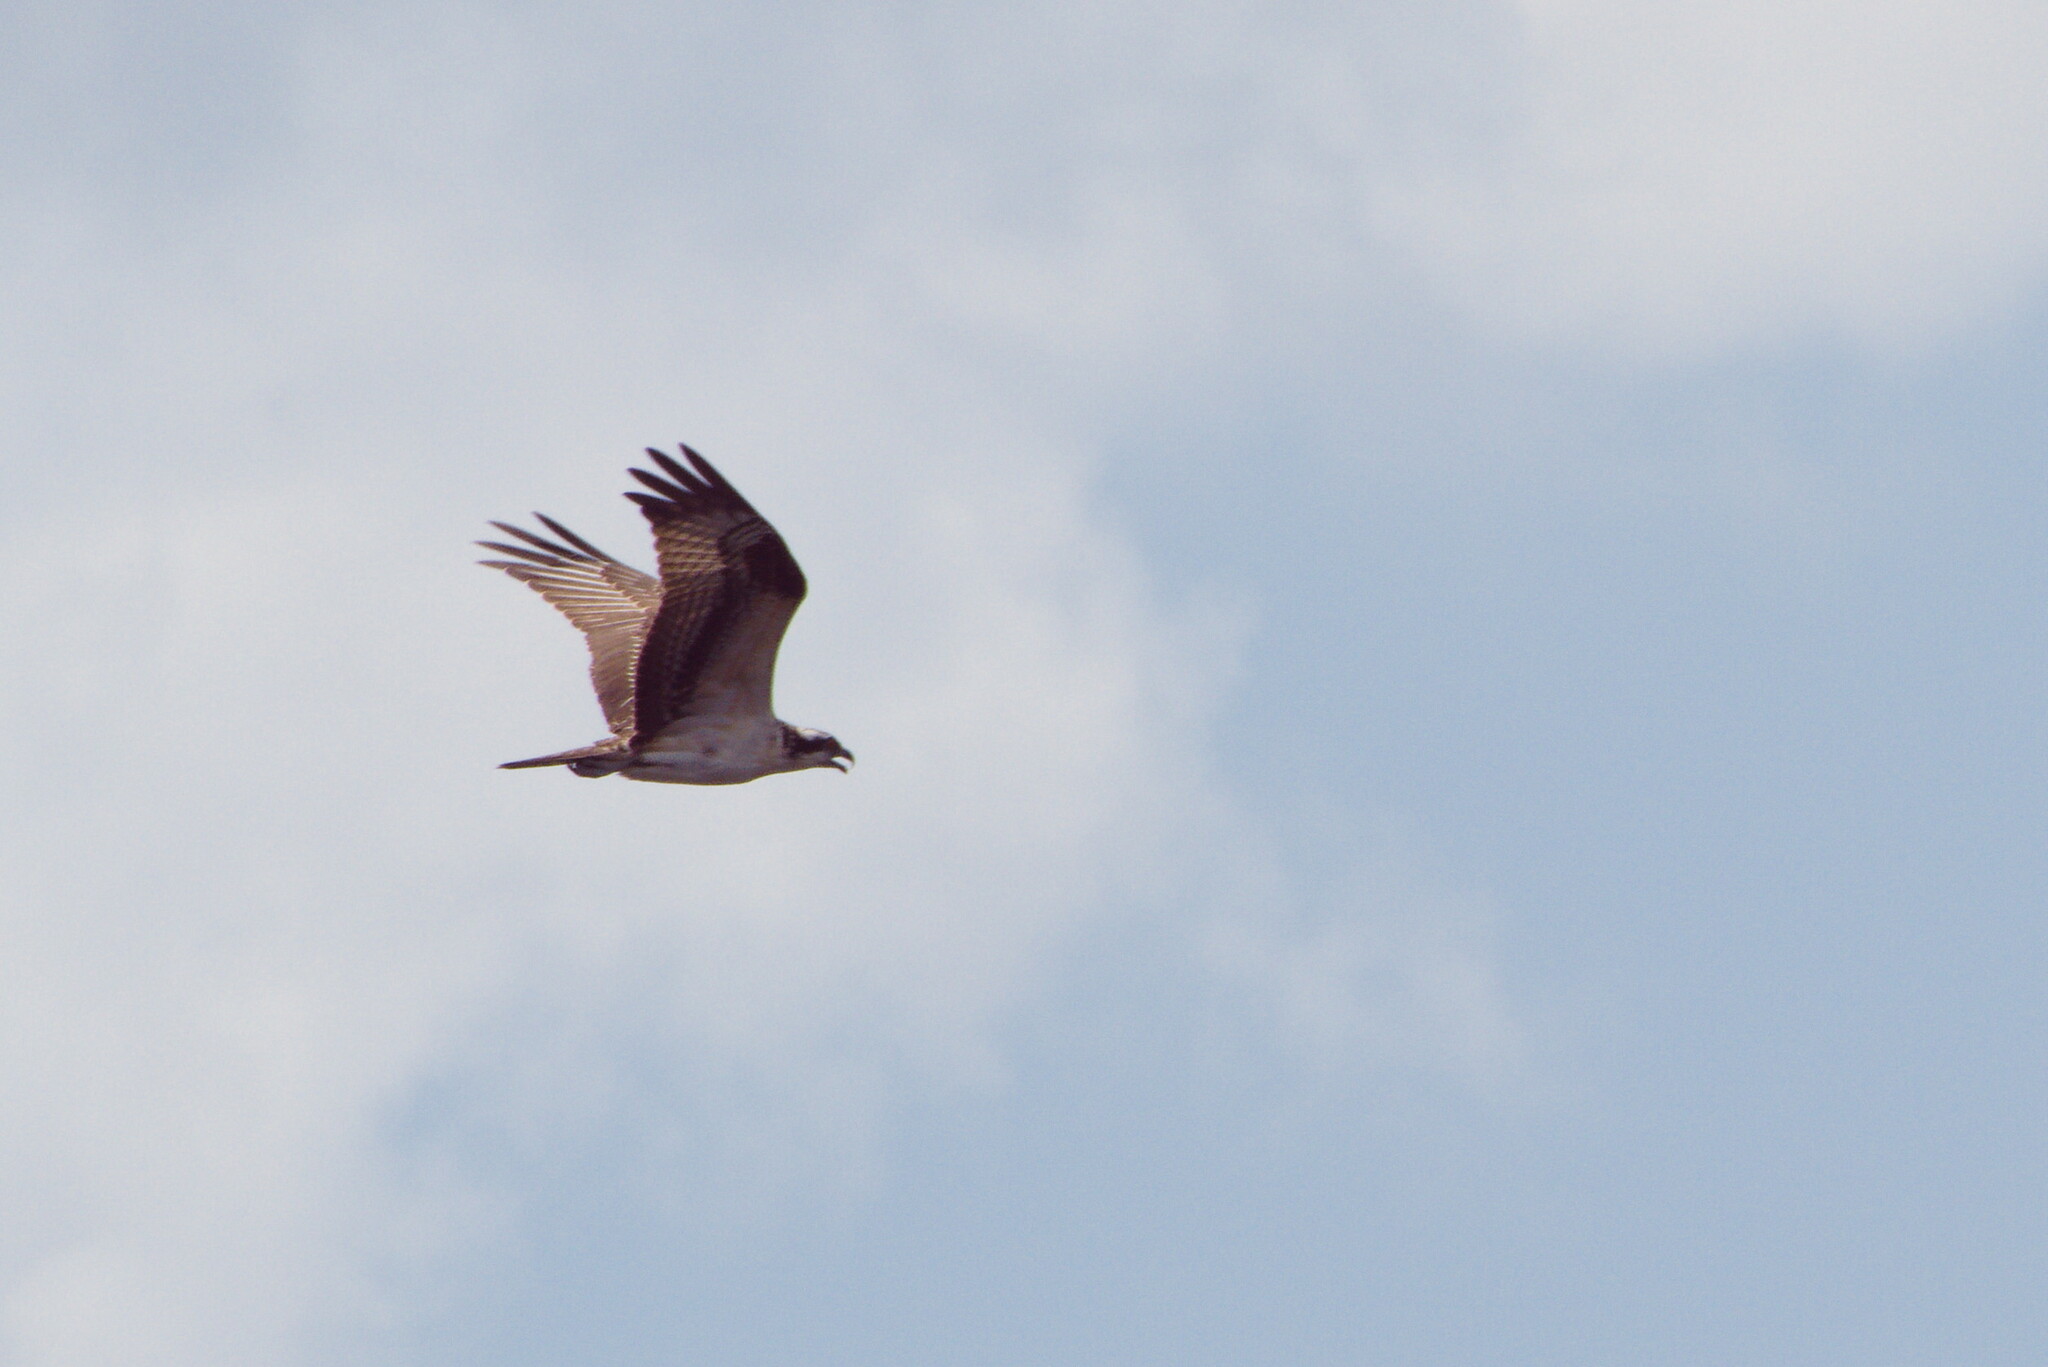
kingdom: Animalia
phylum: Chordata
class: Aves
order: Accipitriformes
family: Pandionidae
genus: Pandion
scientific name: Pandion haliaetus
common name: Osprey
